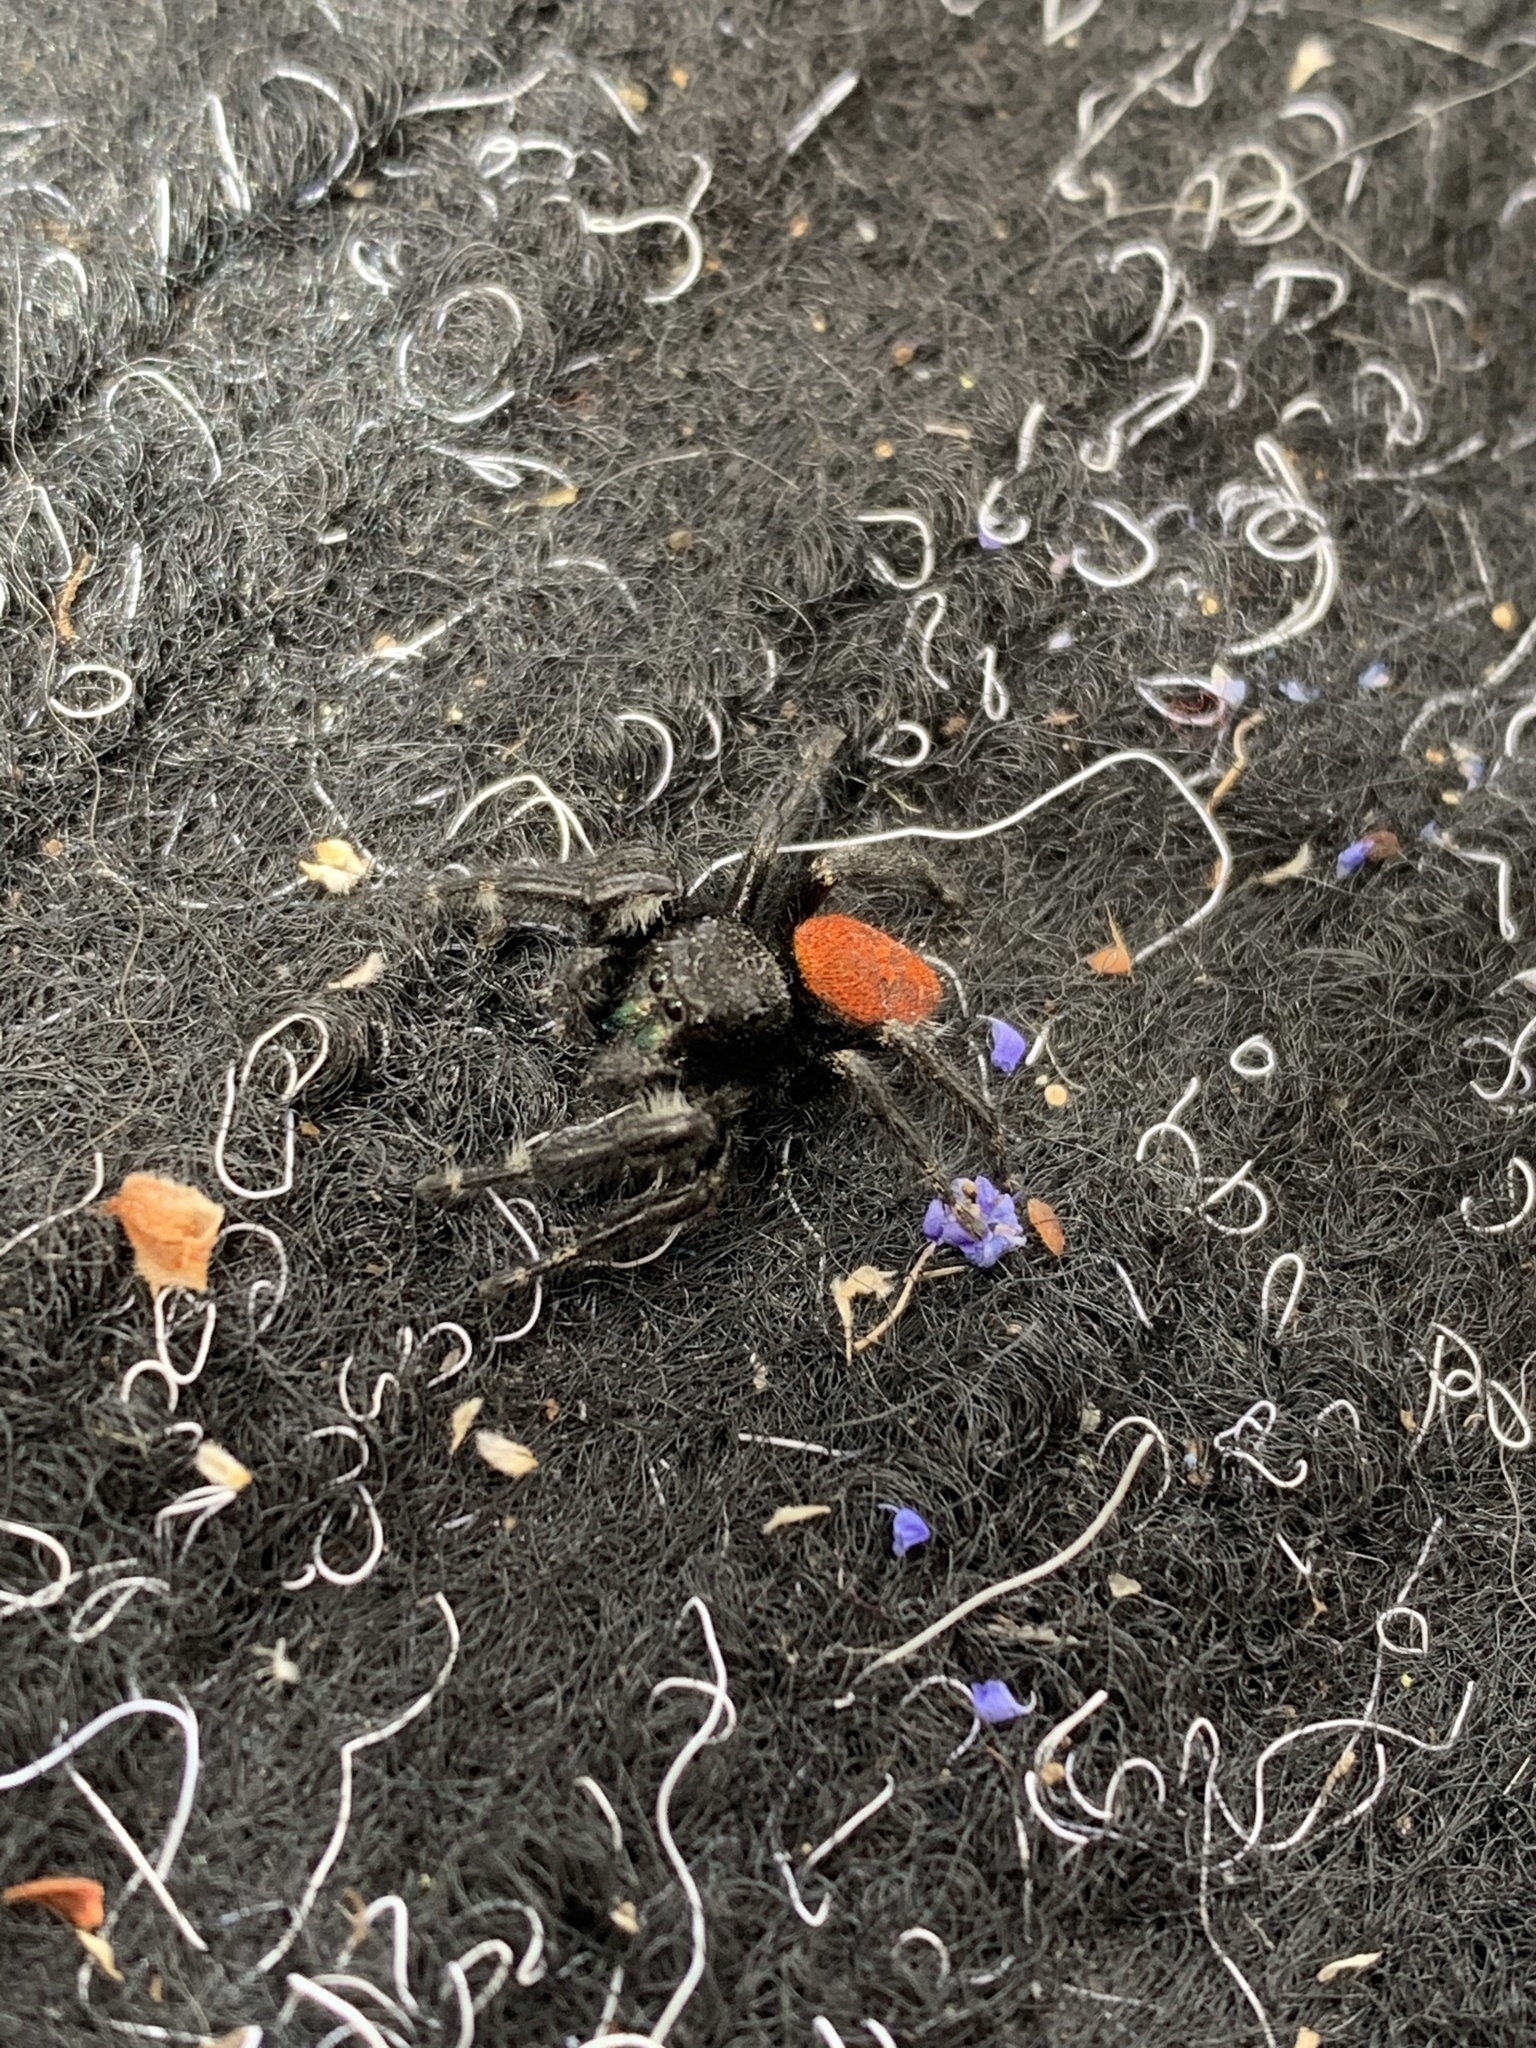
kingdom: Animalia
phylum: Arthropoda
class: Arachnida
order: Araneae
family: Salticidae
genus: Phidippus
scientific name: Phidippus johnsoni
